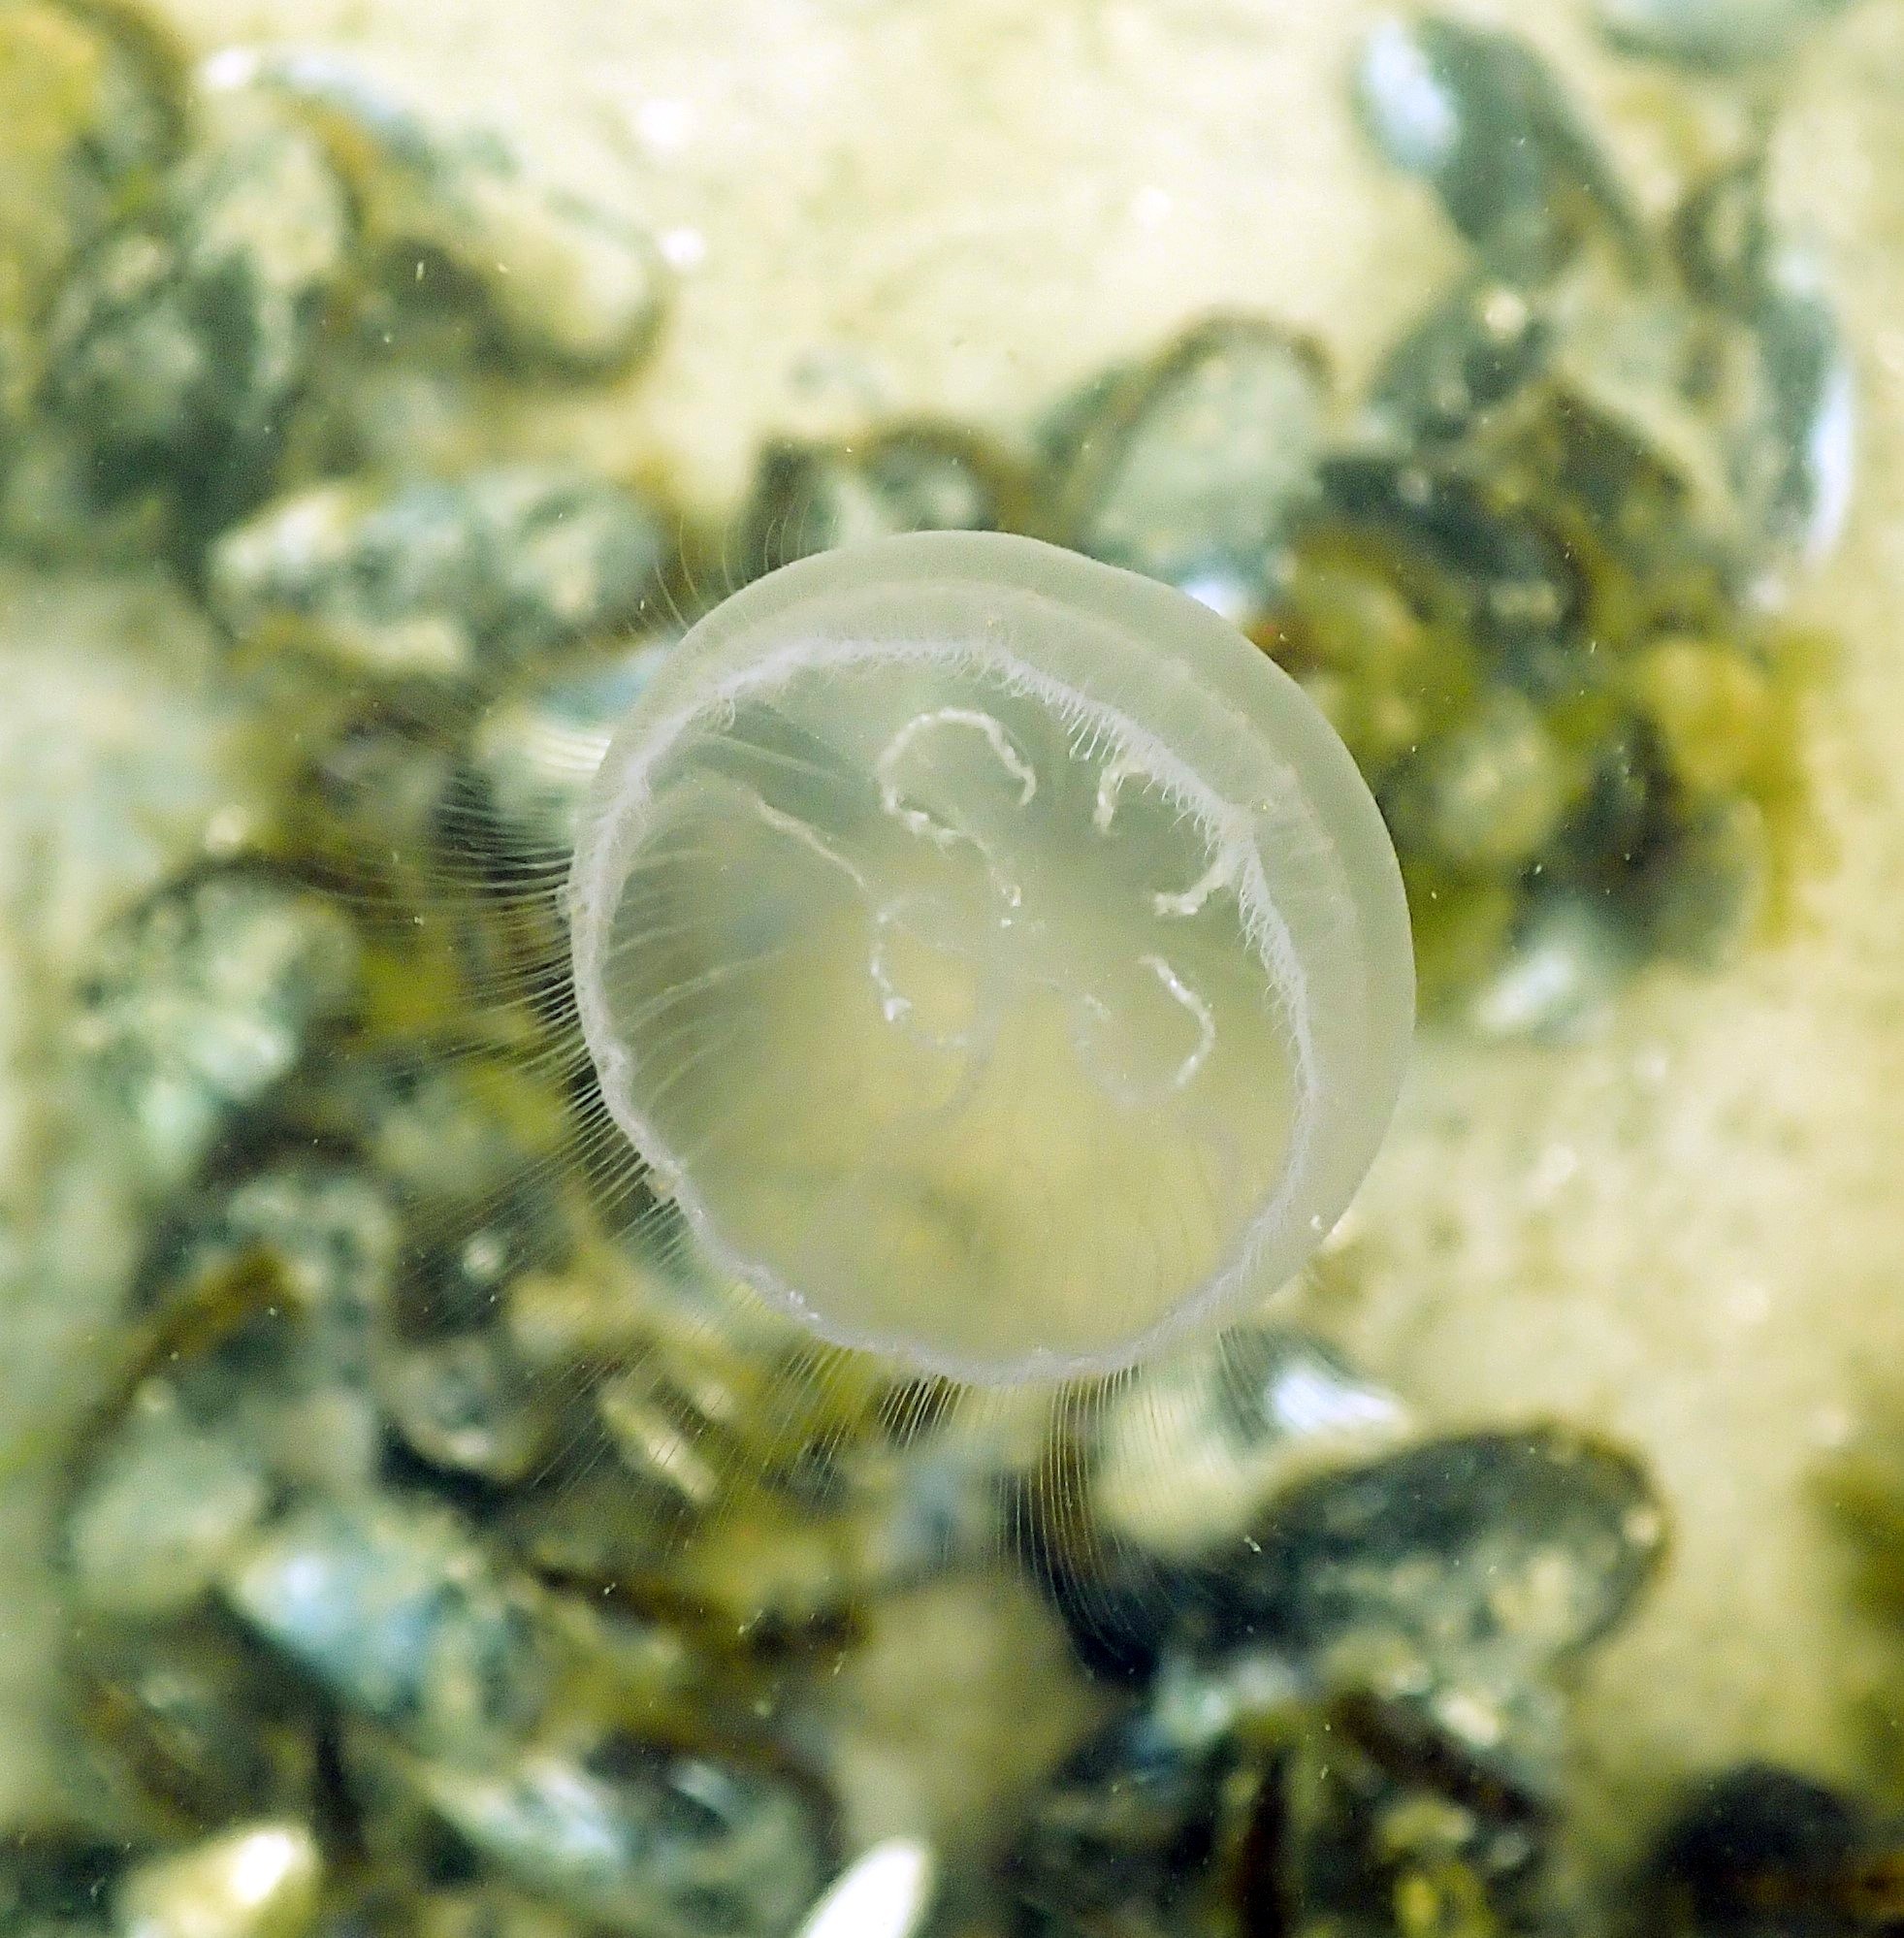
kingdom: Animalia
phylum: Cnidaria
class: Scyphozoa
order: Semaeostomeae
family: Ulmaridae
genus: Aurelia
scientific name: Aurelia aurita
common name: Moon jellyfish
